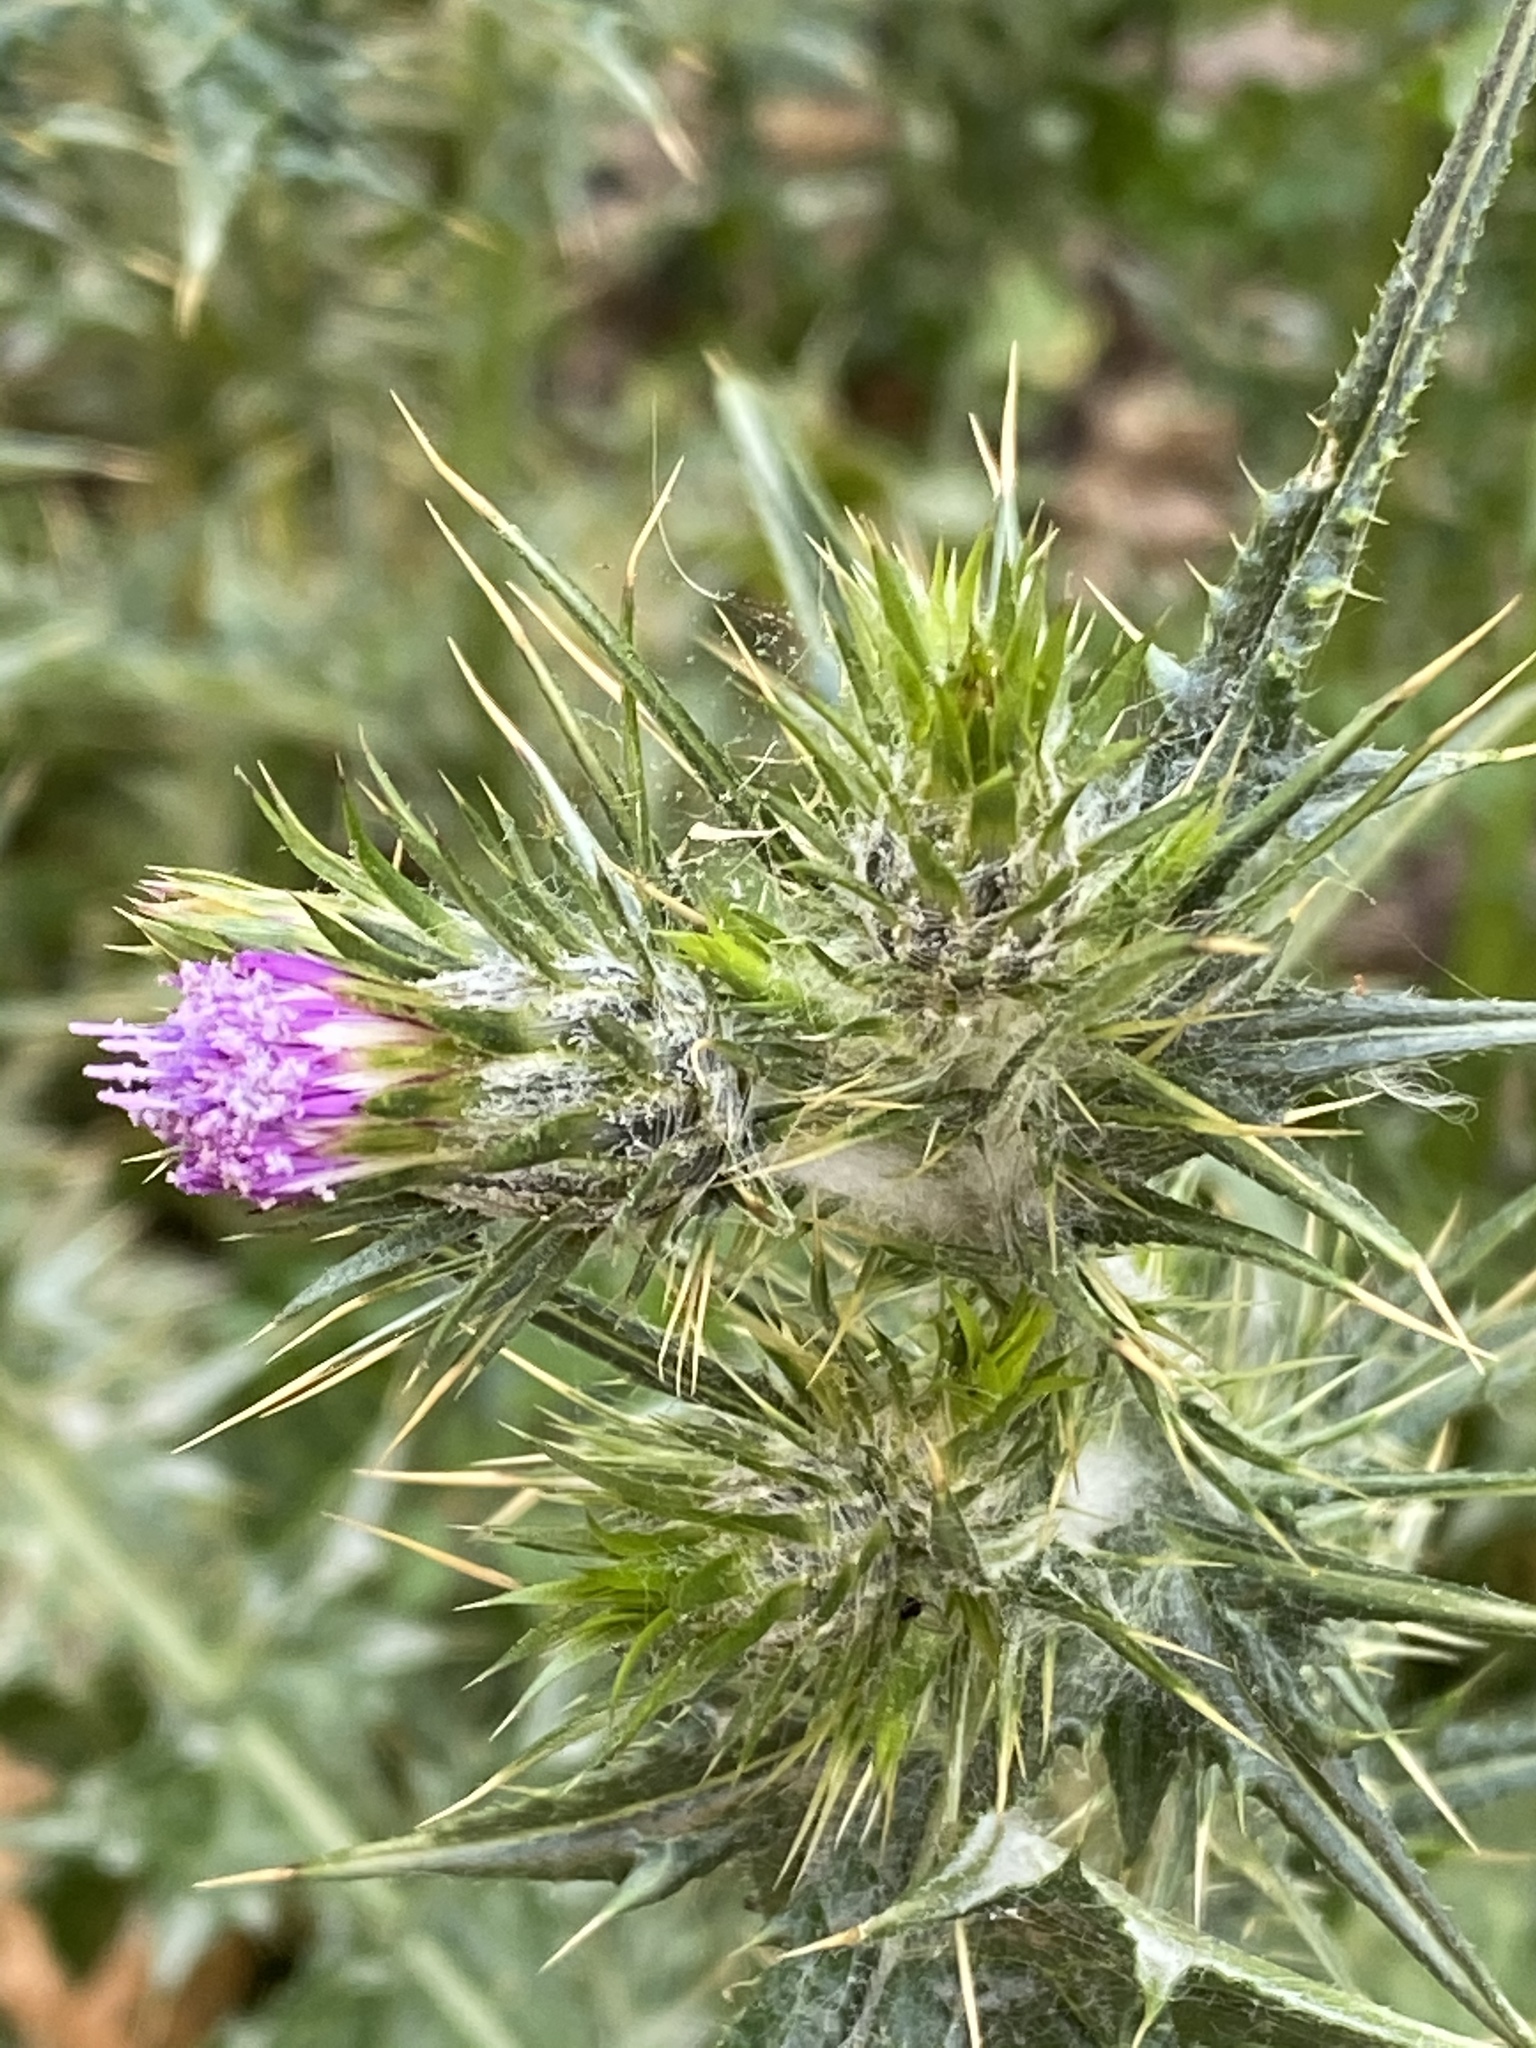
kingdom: Plantae
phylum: Tracheophyta
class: Magnoliopsida
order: Asterales
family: Asteraceae
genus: Carduus
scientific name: Carduus pycnocephalus
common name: Plymouth thistle
